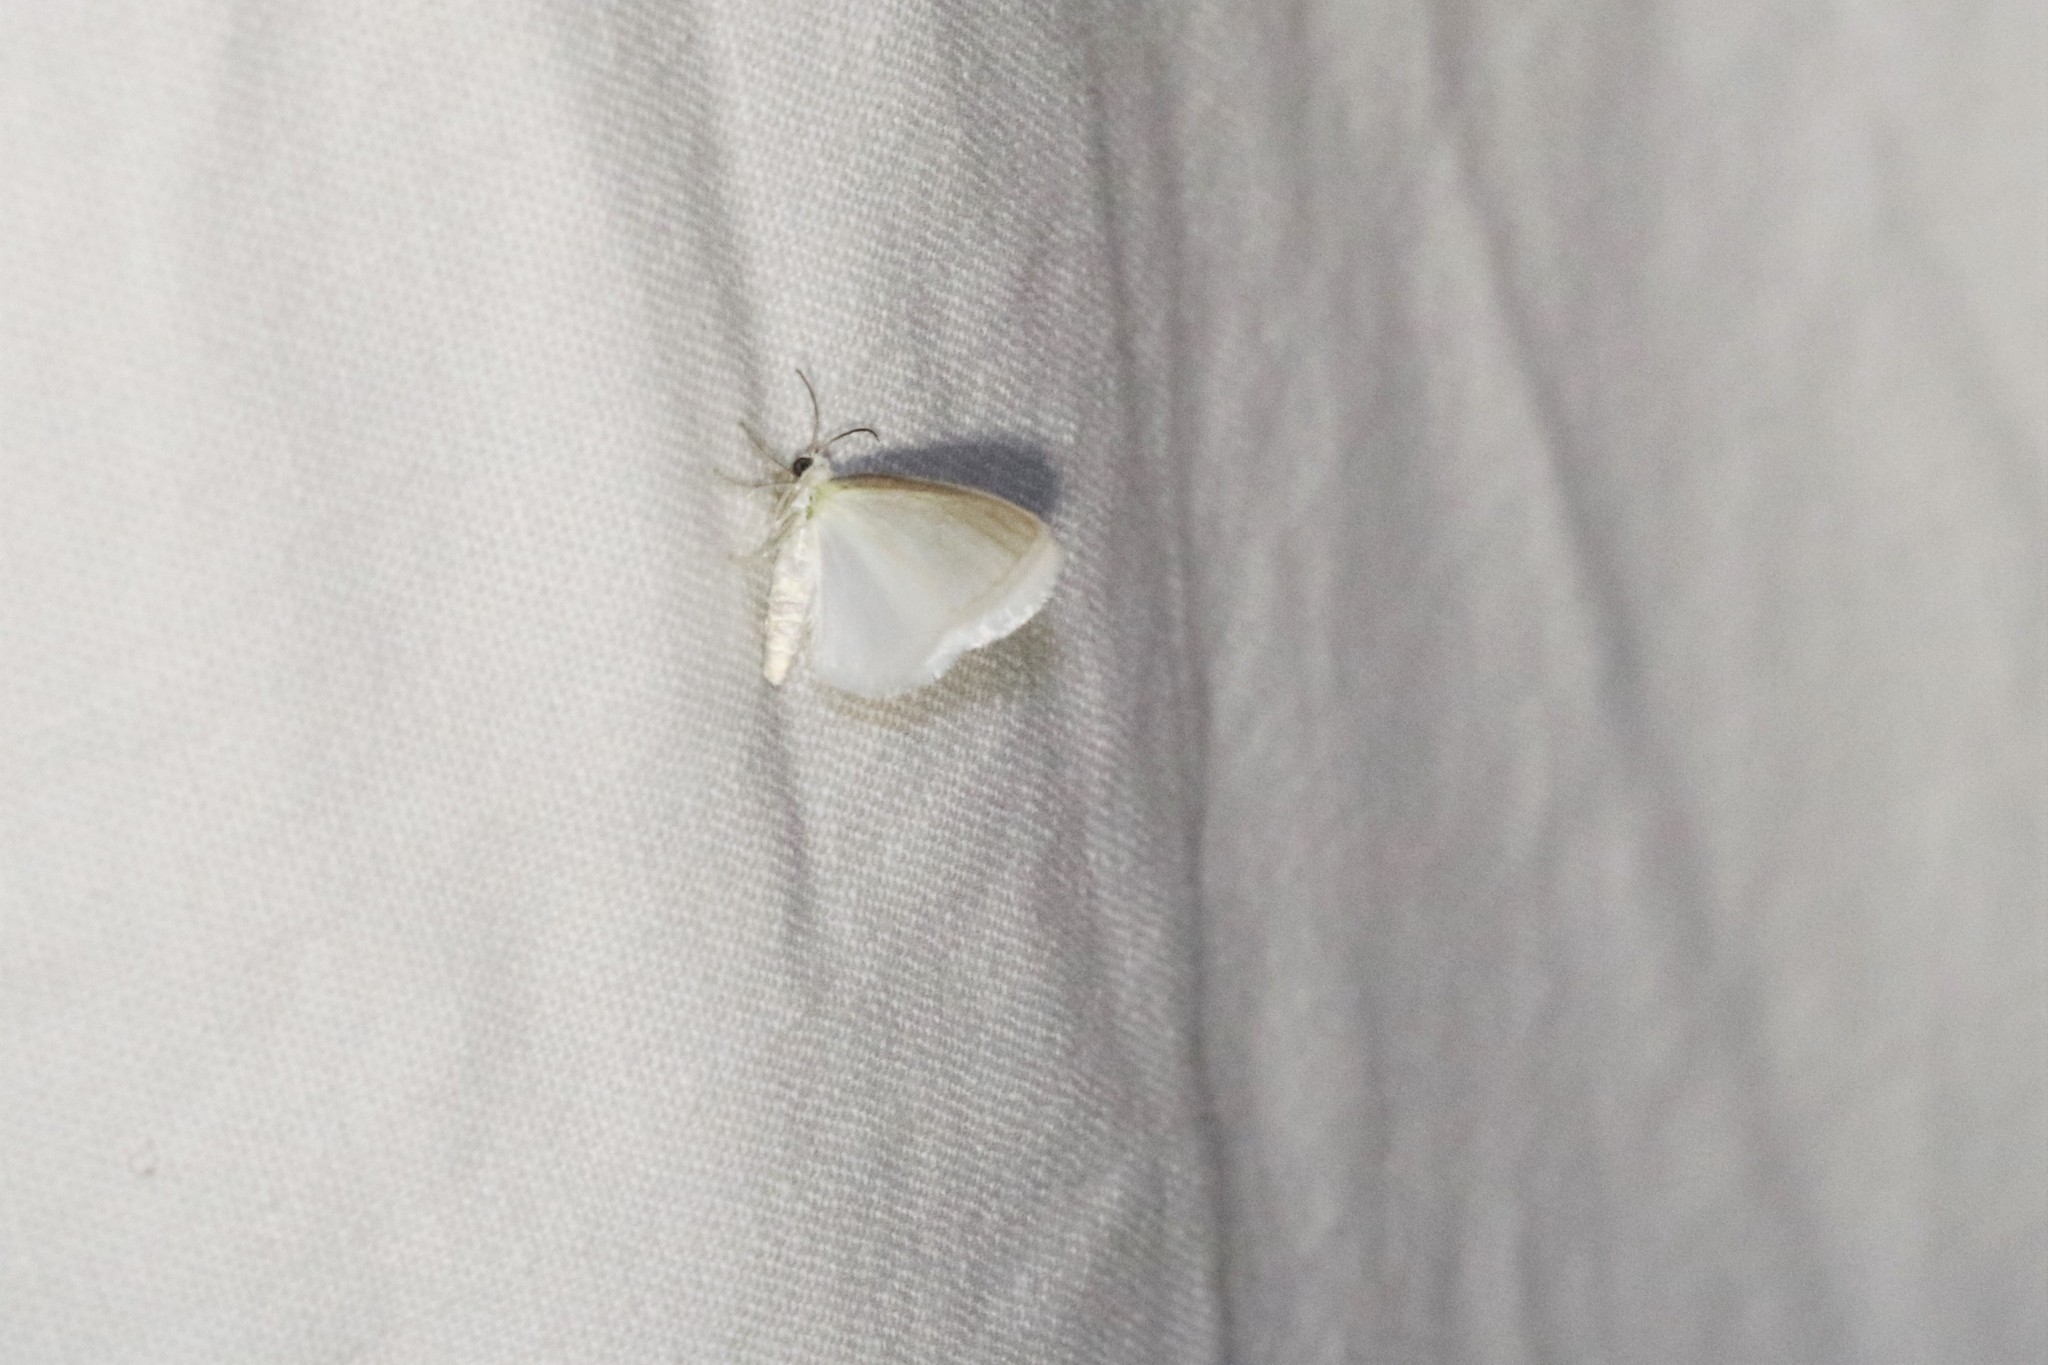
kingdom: Animalia
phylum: Arthropoda
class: Insecta
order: Lepidoptera
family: Geometridae
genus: Lomographa
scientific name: Lomographa vestaliata
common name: White spring moth
